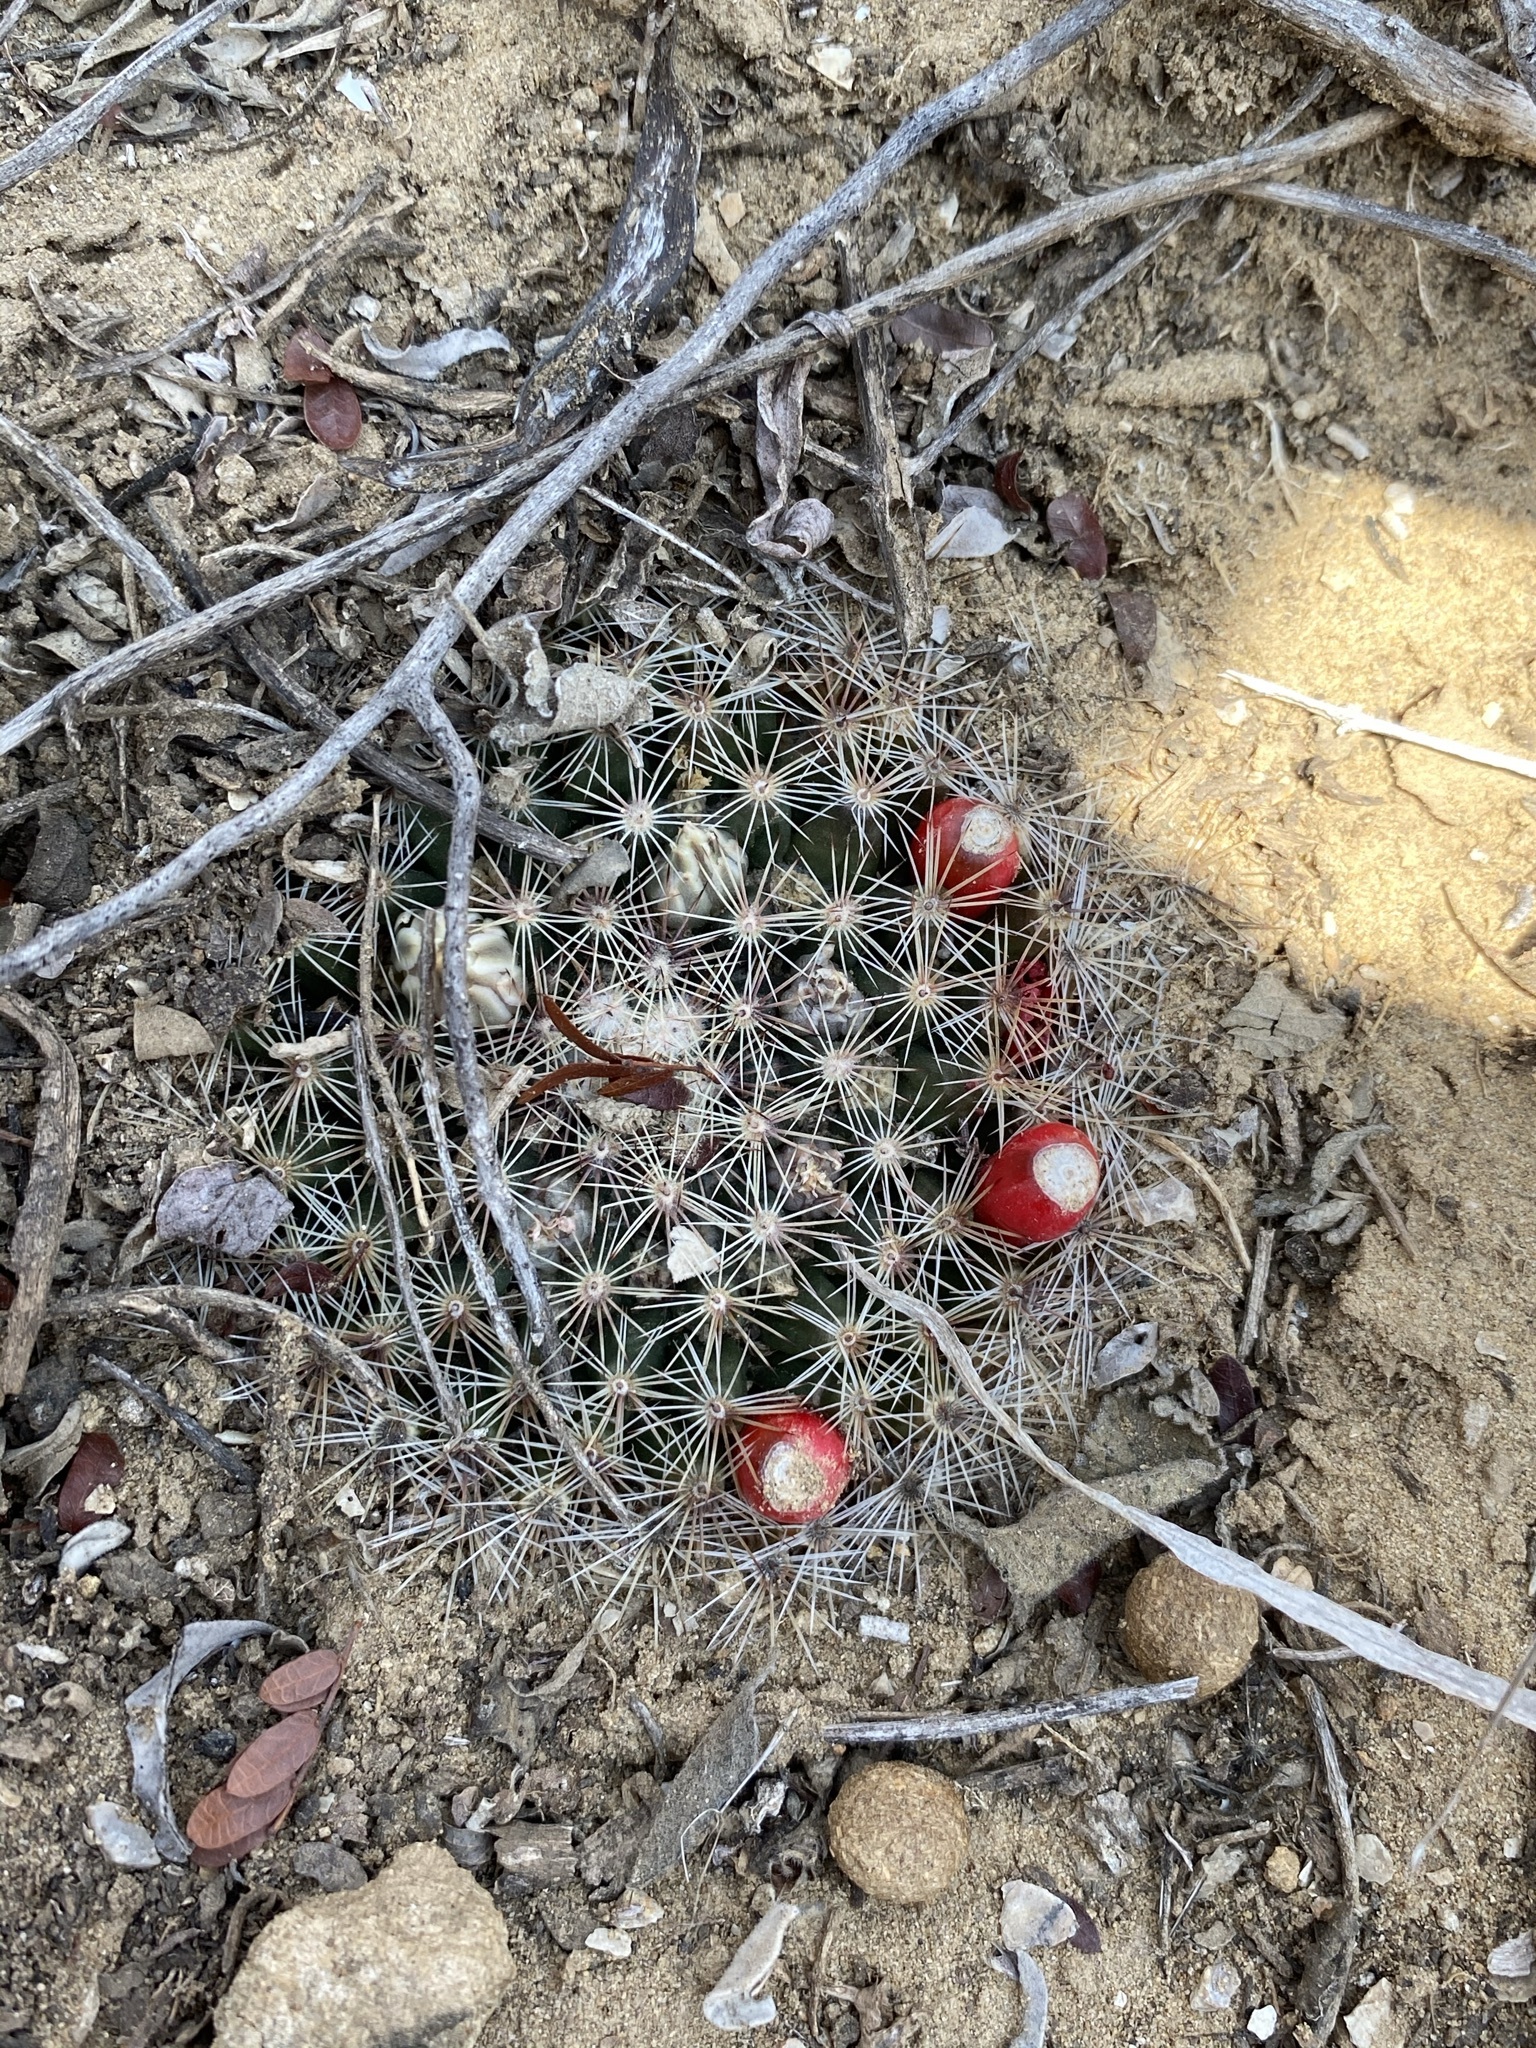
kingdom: Plantae
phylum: Tracheophyta
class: Magnoliopsida
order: Caryophyllales
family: Cactaceae
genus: Mammillaria
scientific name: Mammillaria heyderi
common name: Little nipple cactus
